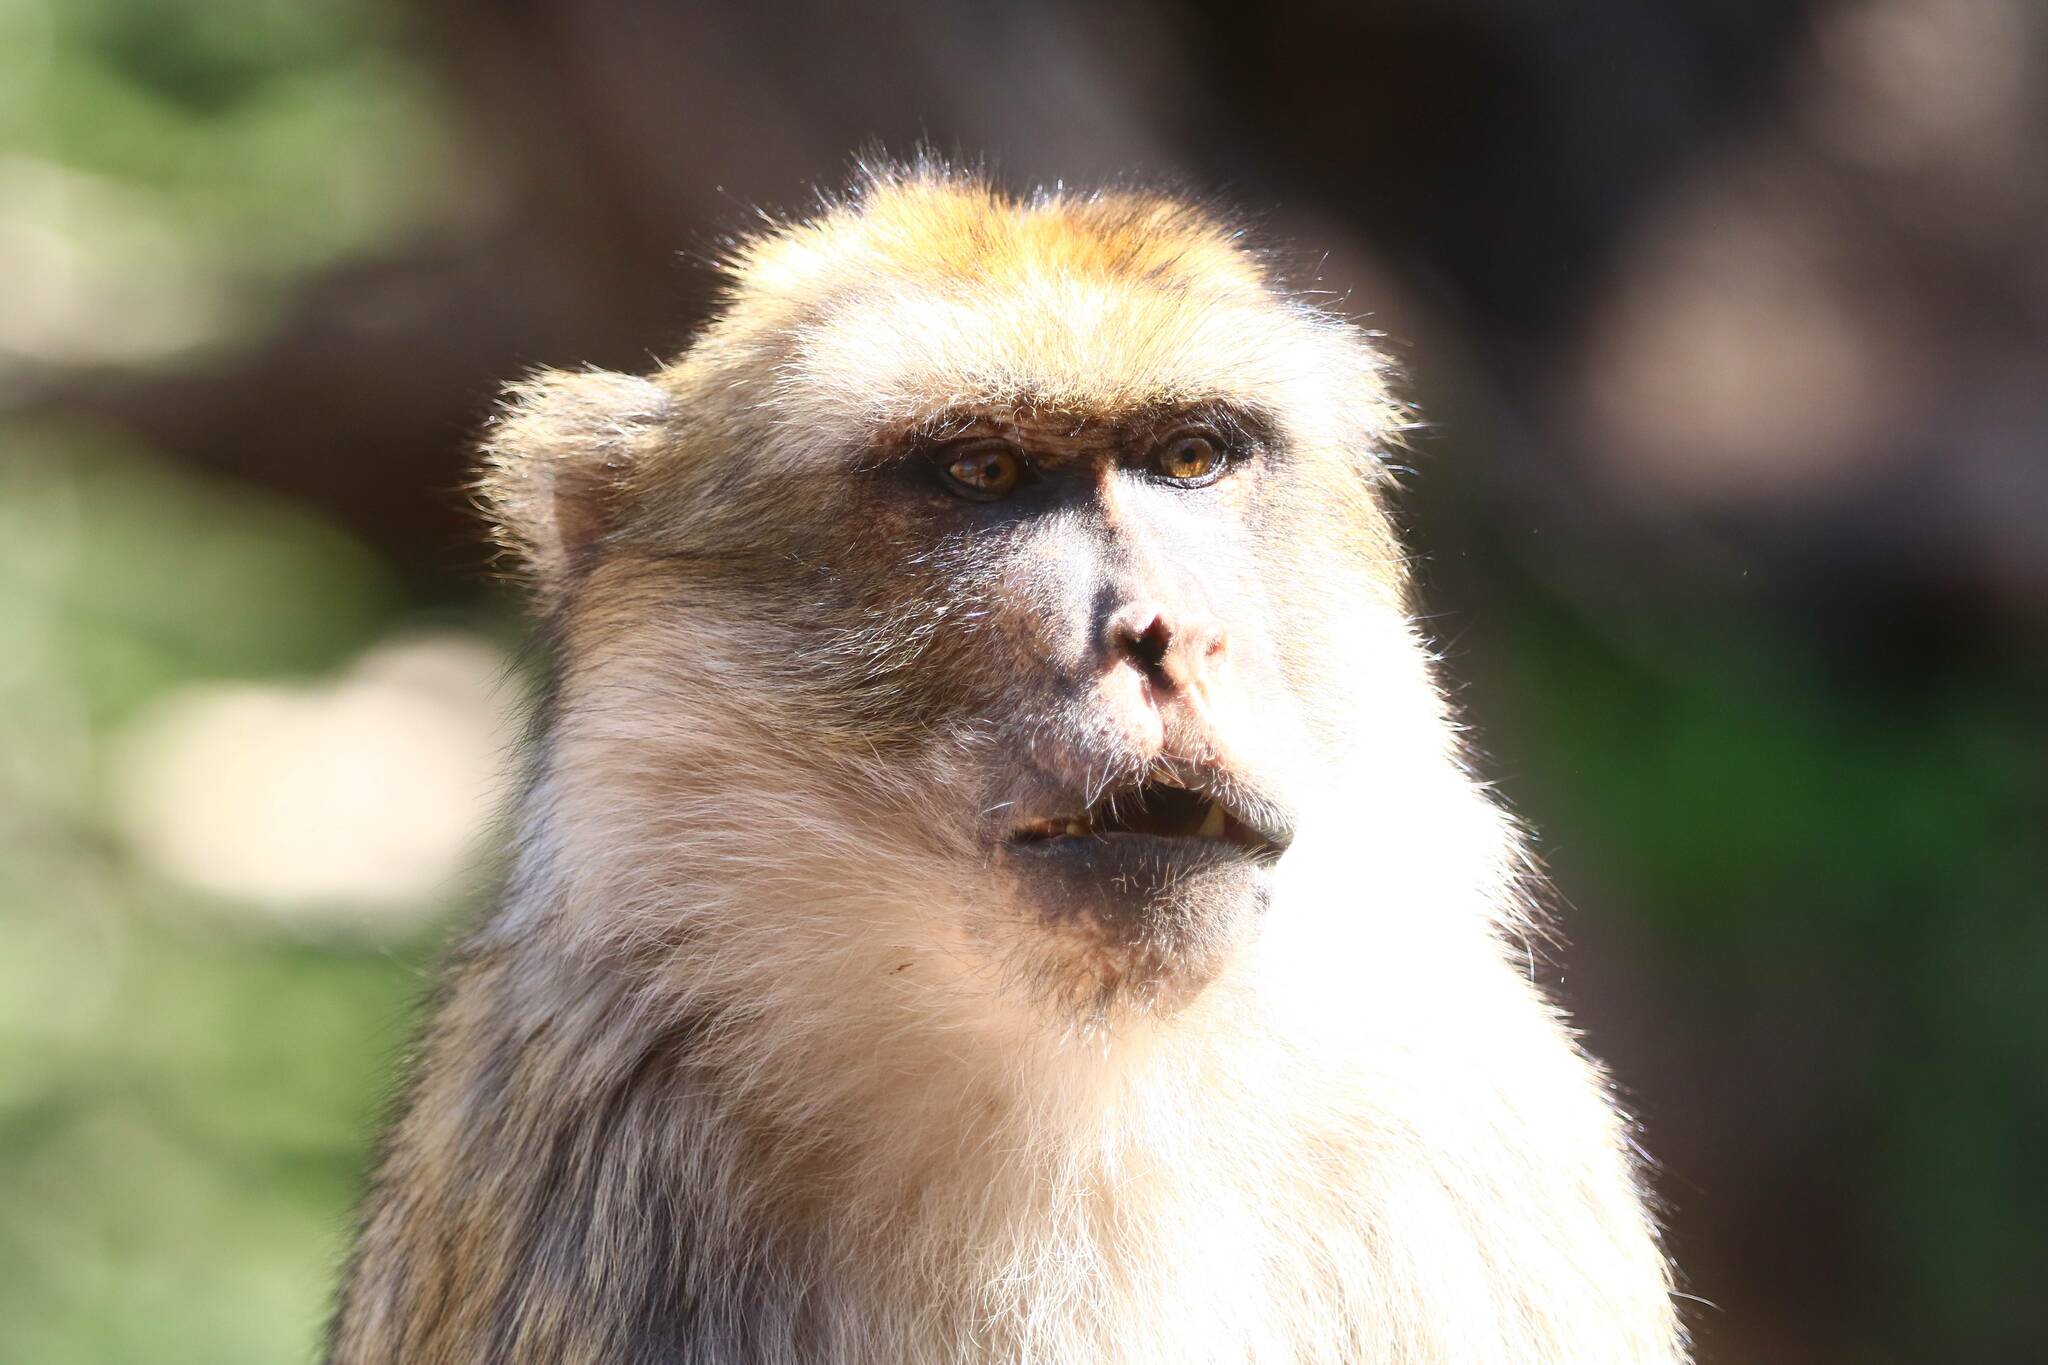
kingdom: Animalia
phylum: Chordata
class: Mammalia
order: Primates
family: Cercopithecidae
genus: Macaca
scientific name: Macaca sylvanus
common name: Barbary macaque
